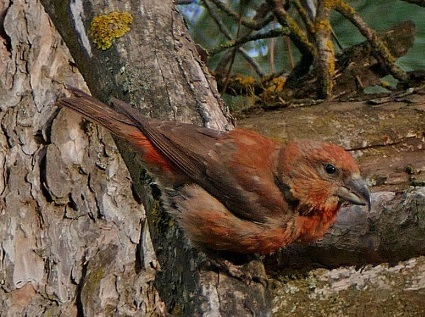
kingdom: Animalia
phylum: Chordata
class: Aves
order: Passeriformes
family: Fringillidae
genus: Loxia
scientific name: Loxia curvirostra
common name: Red crossbill
